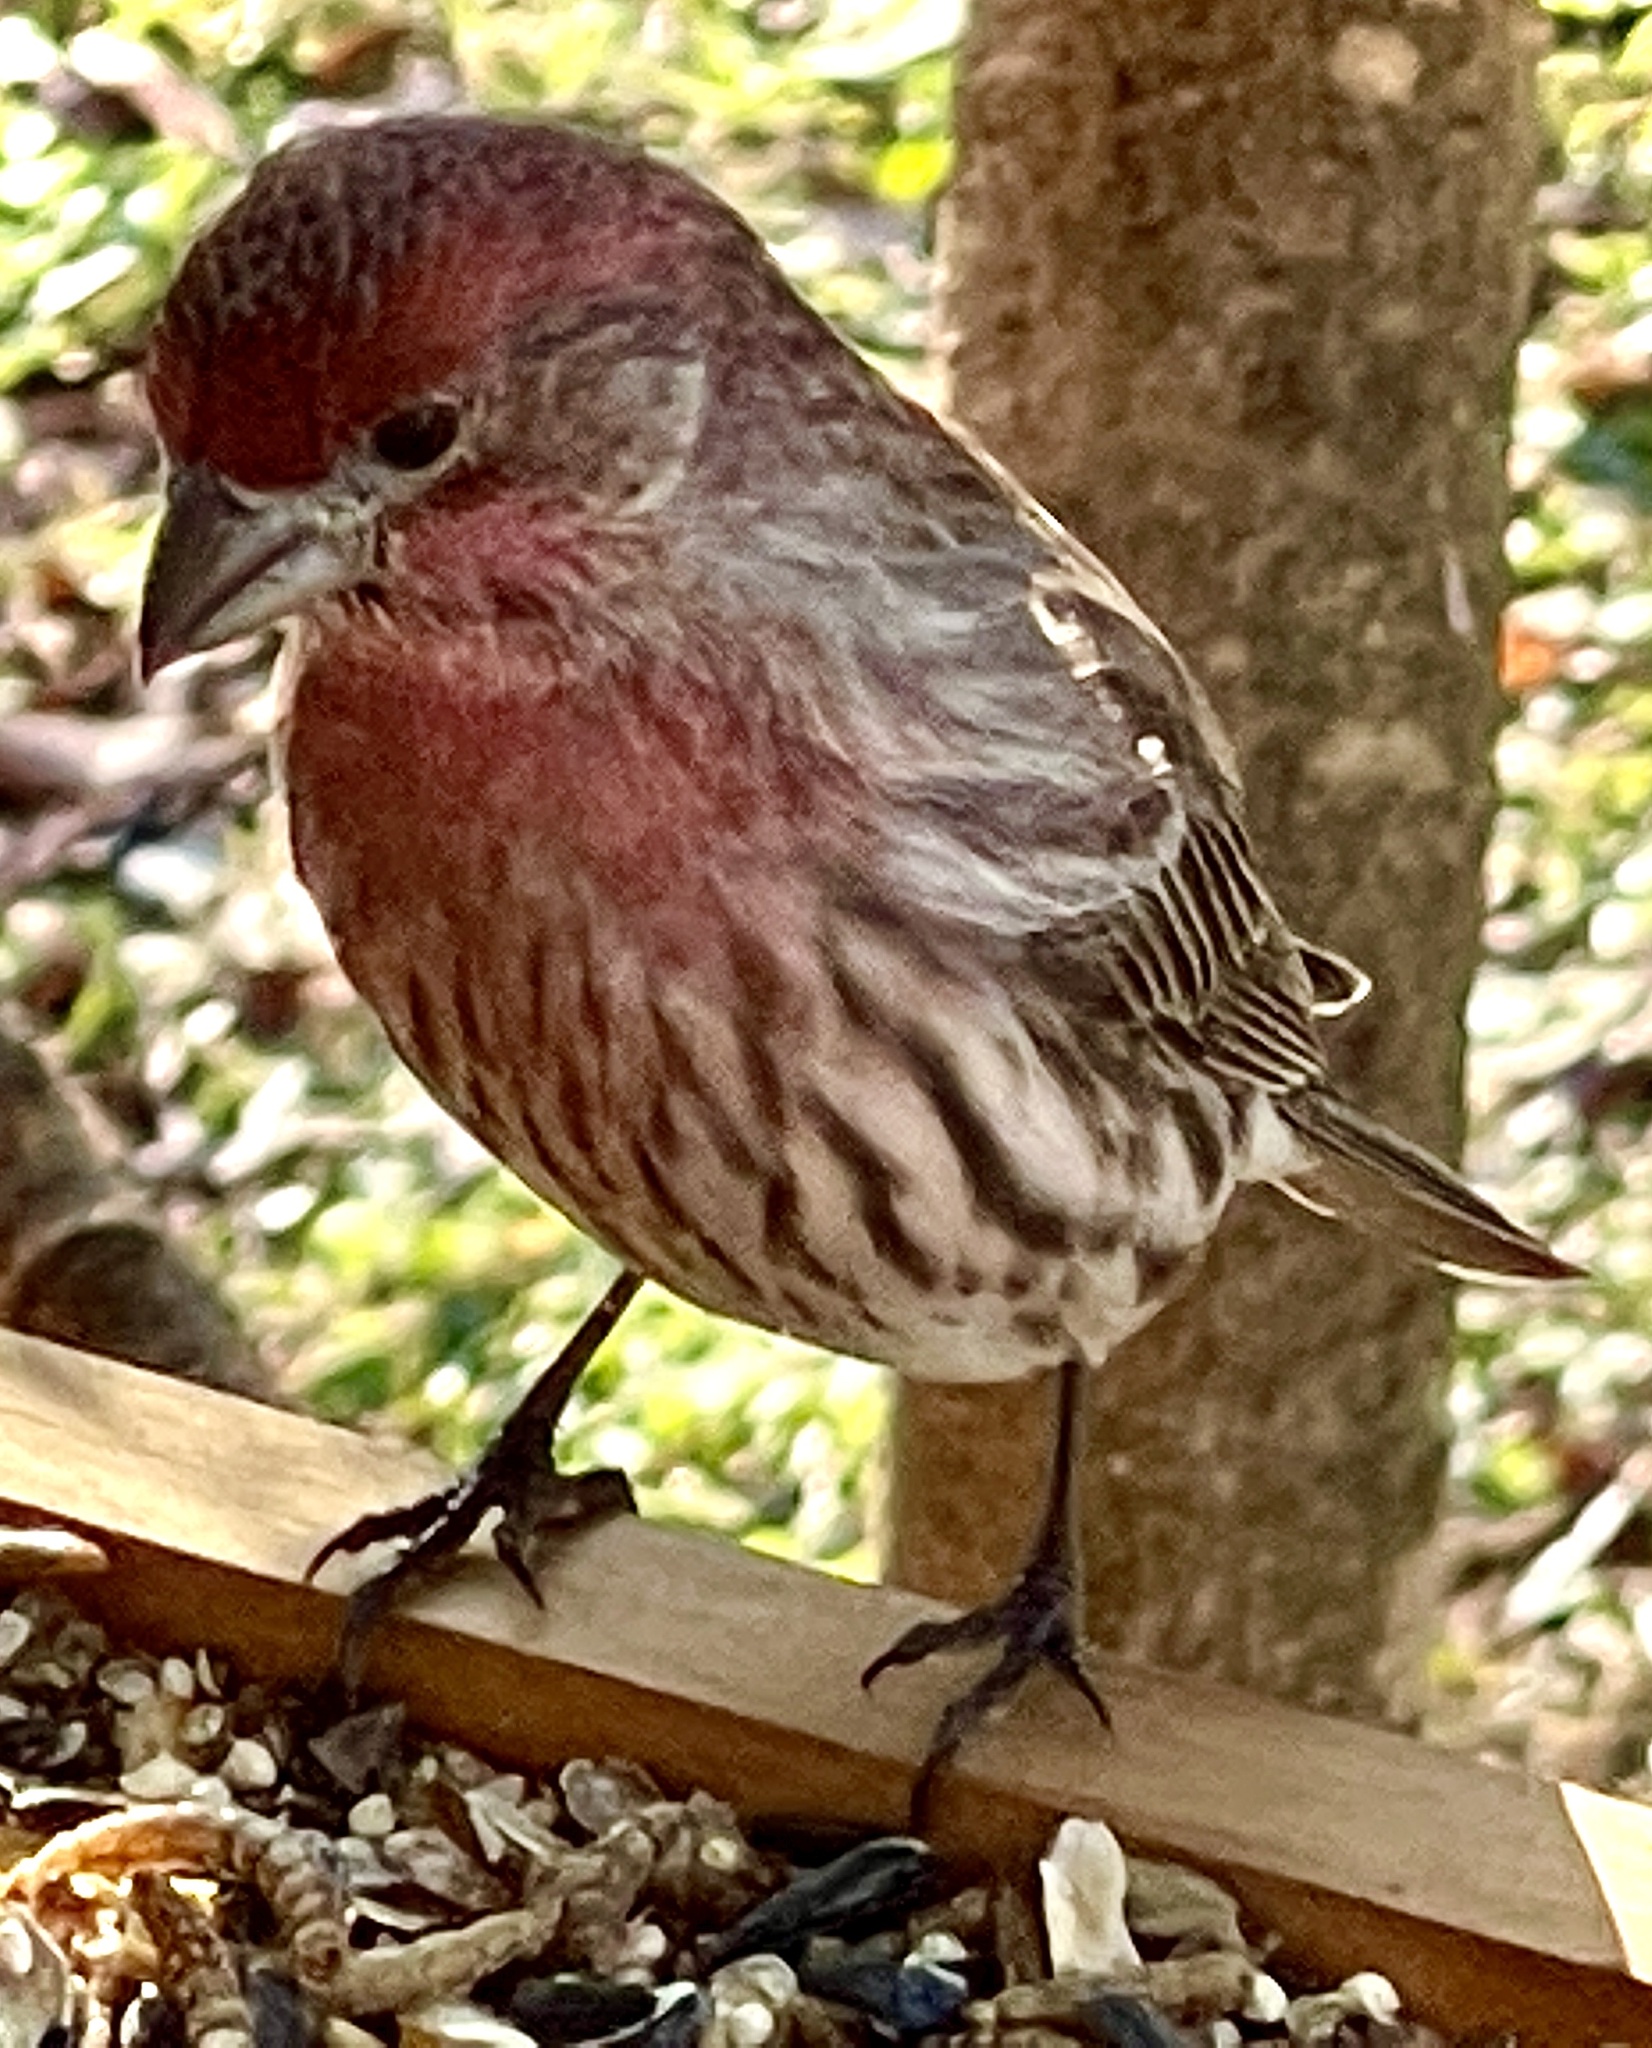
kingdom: Animalia
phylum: Chordata
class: Aves
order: Passeriformes
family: Fringillidae
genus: Haemorhous
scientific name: Haemorhous mexicanus
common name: House finch
